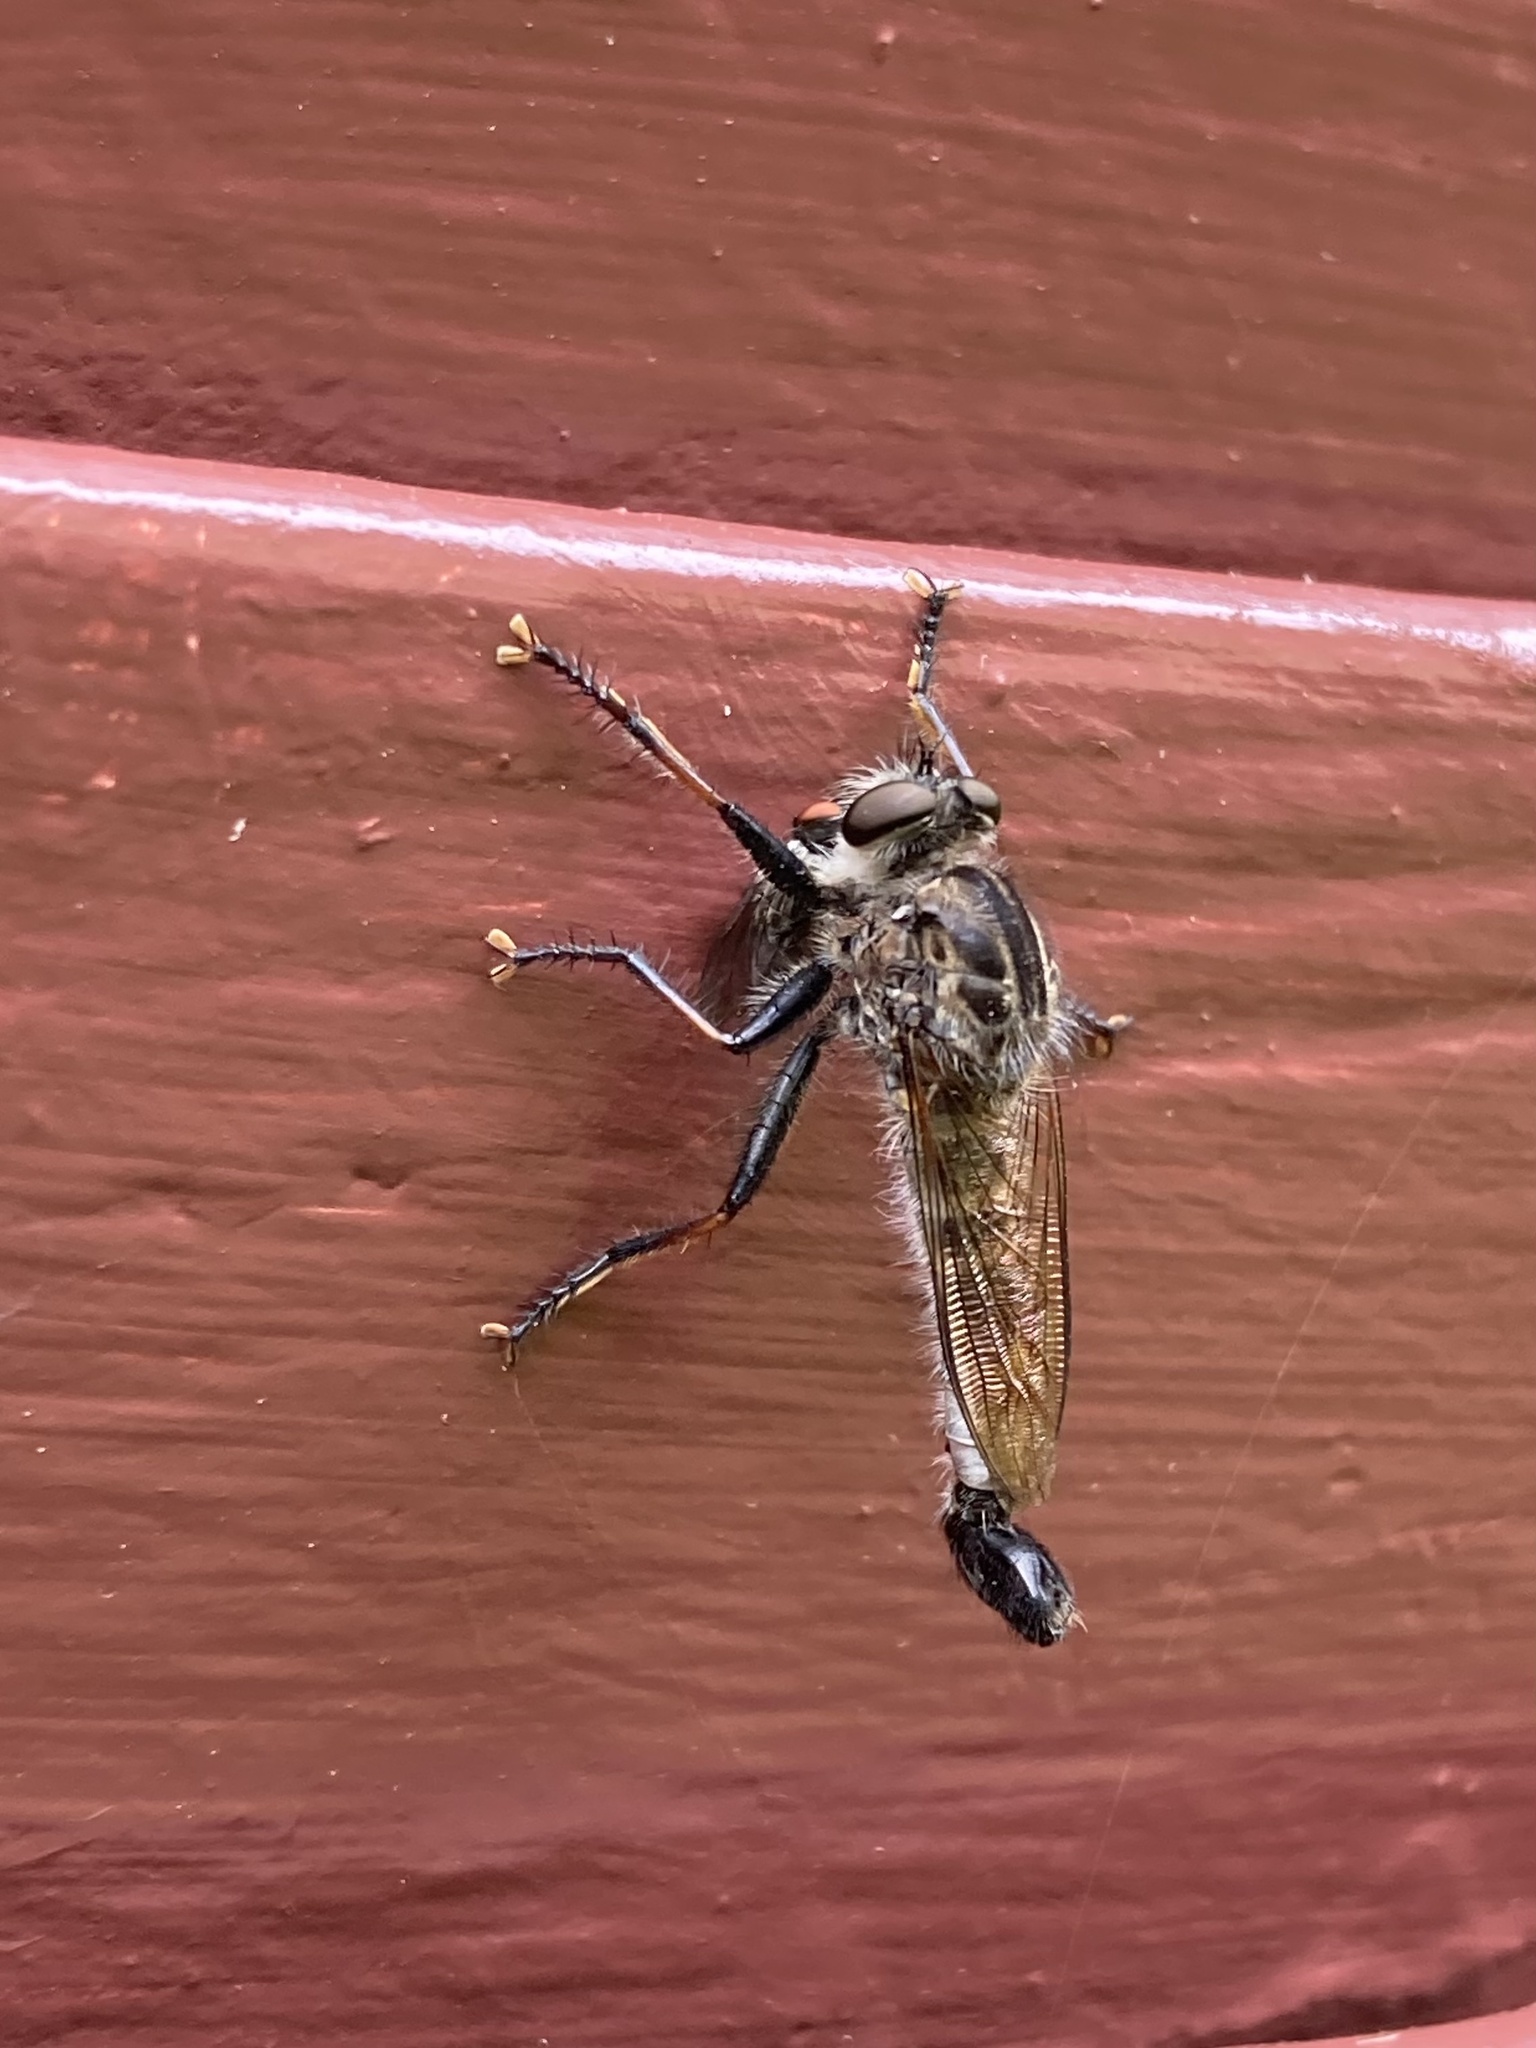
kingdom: Animalia
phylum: Arthropoda
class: Insecta
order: Diptera
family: Asilidae
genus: Efferia
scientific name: Efferia aestuans
